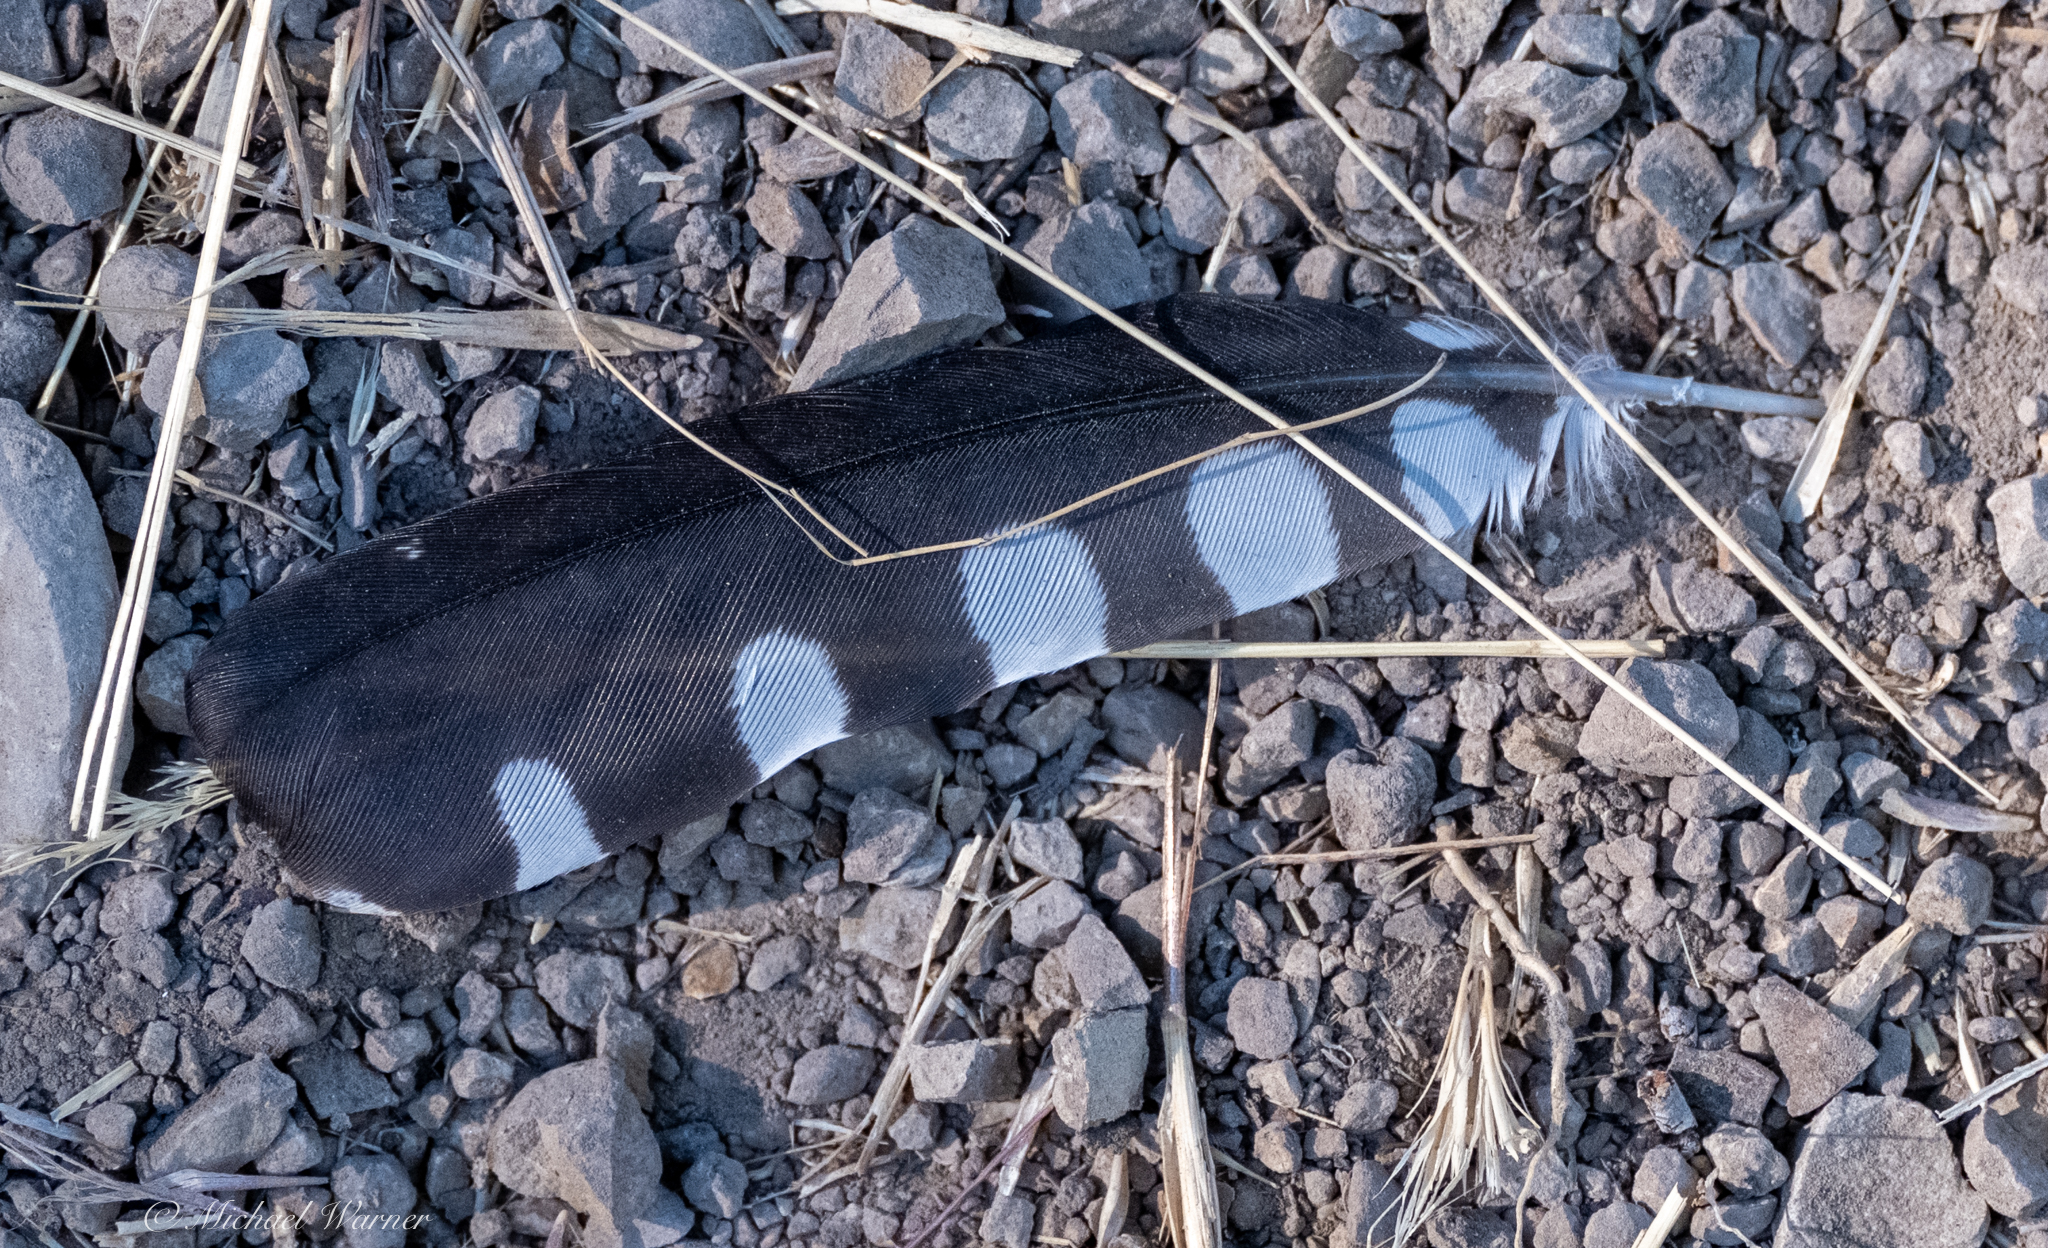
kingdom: Animalia
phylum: Chordata
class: Aves
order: Piciformes
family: Picidae
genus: Dryobates
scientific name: Dryobates pubescens
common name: Downy woodpecker
